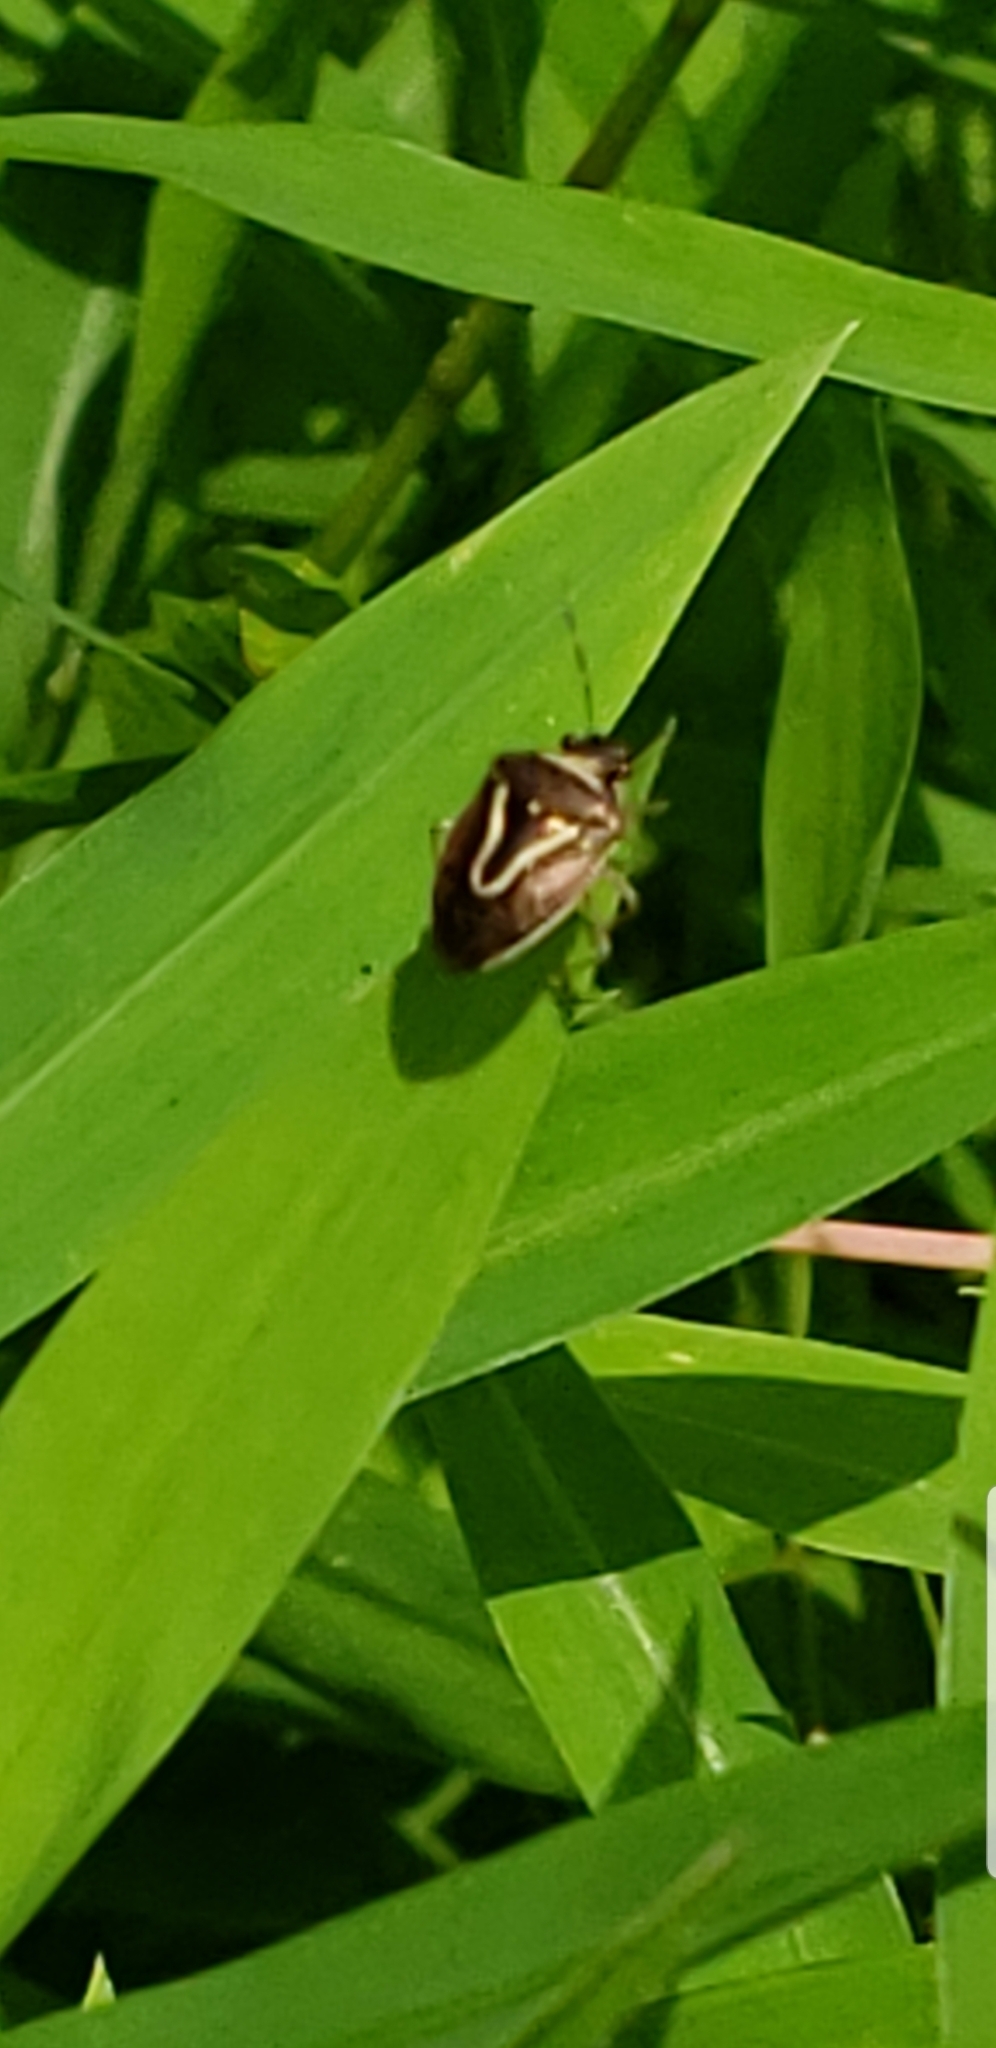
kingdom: Animalia
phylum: Arthropoda
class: Insecta
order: Hemiptera
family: Pentatomidae
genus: Mormidea
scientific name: Mormidea lugens
